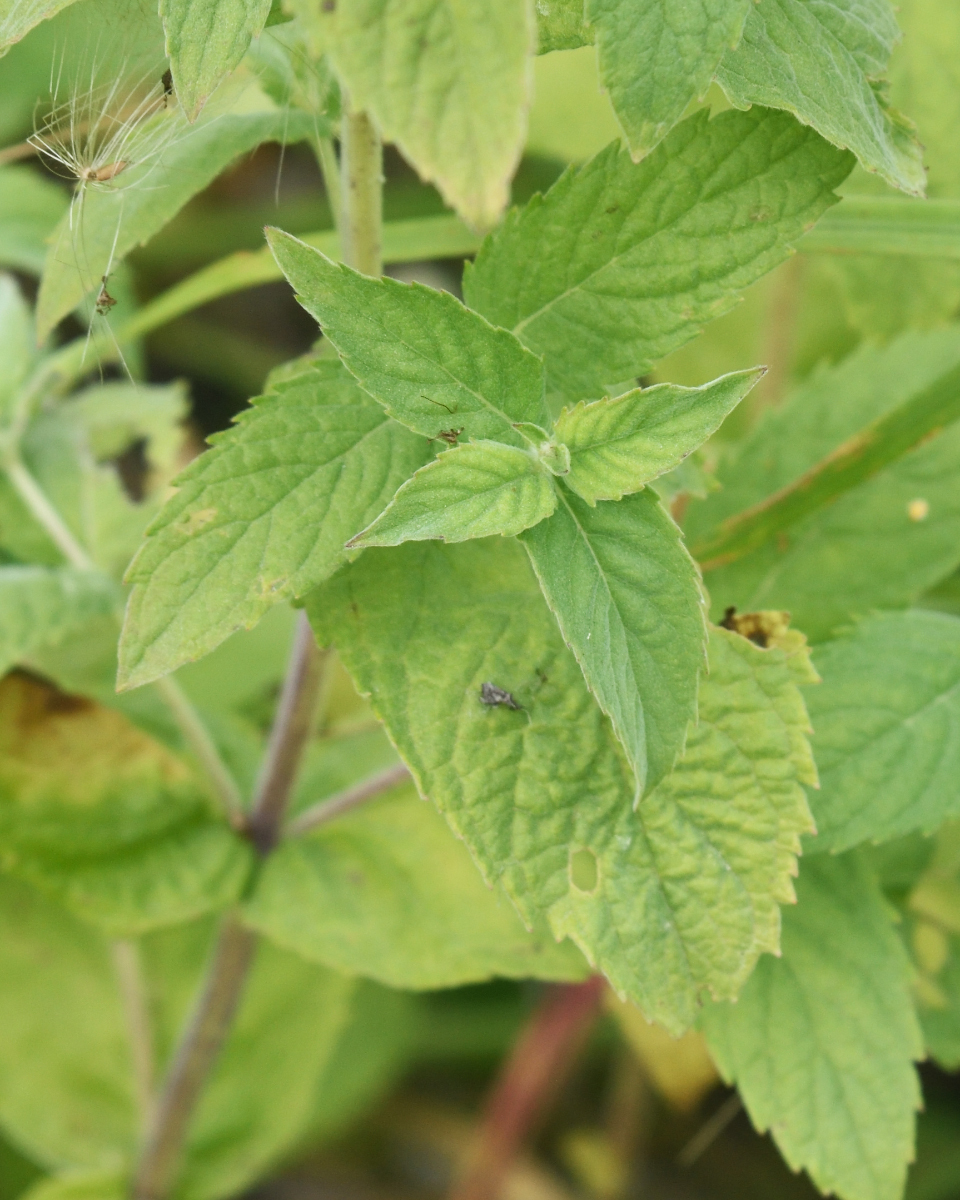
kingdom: Plantae
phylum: Tracheophyta
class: Magnoliopsida
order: Lamiales
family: Lamiaceae
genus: Mentha
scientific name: Mentha longifolia
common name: Horse mint
